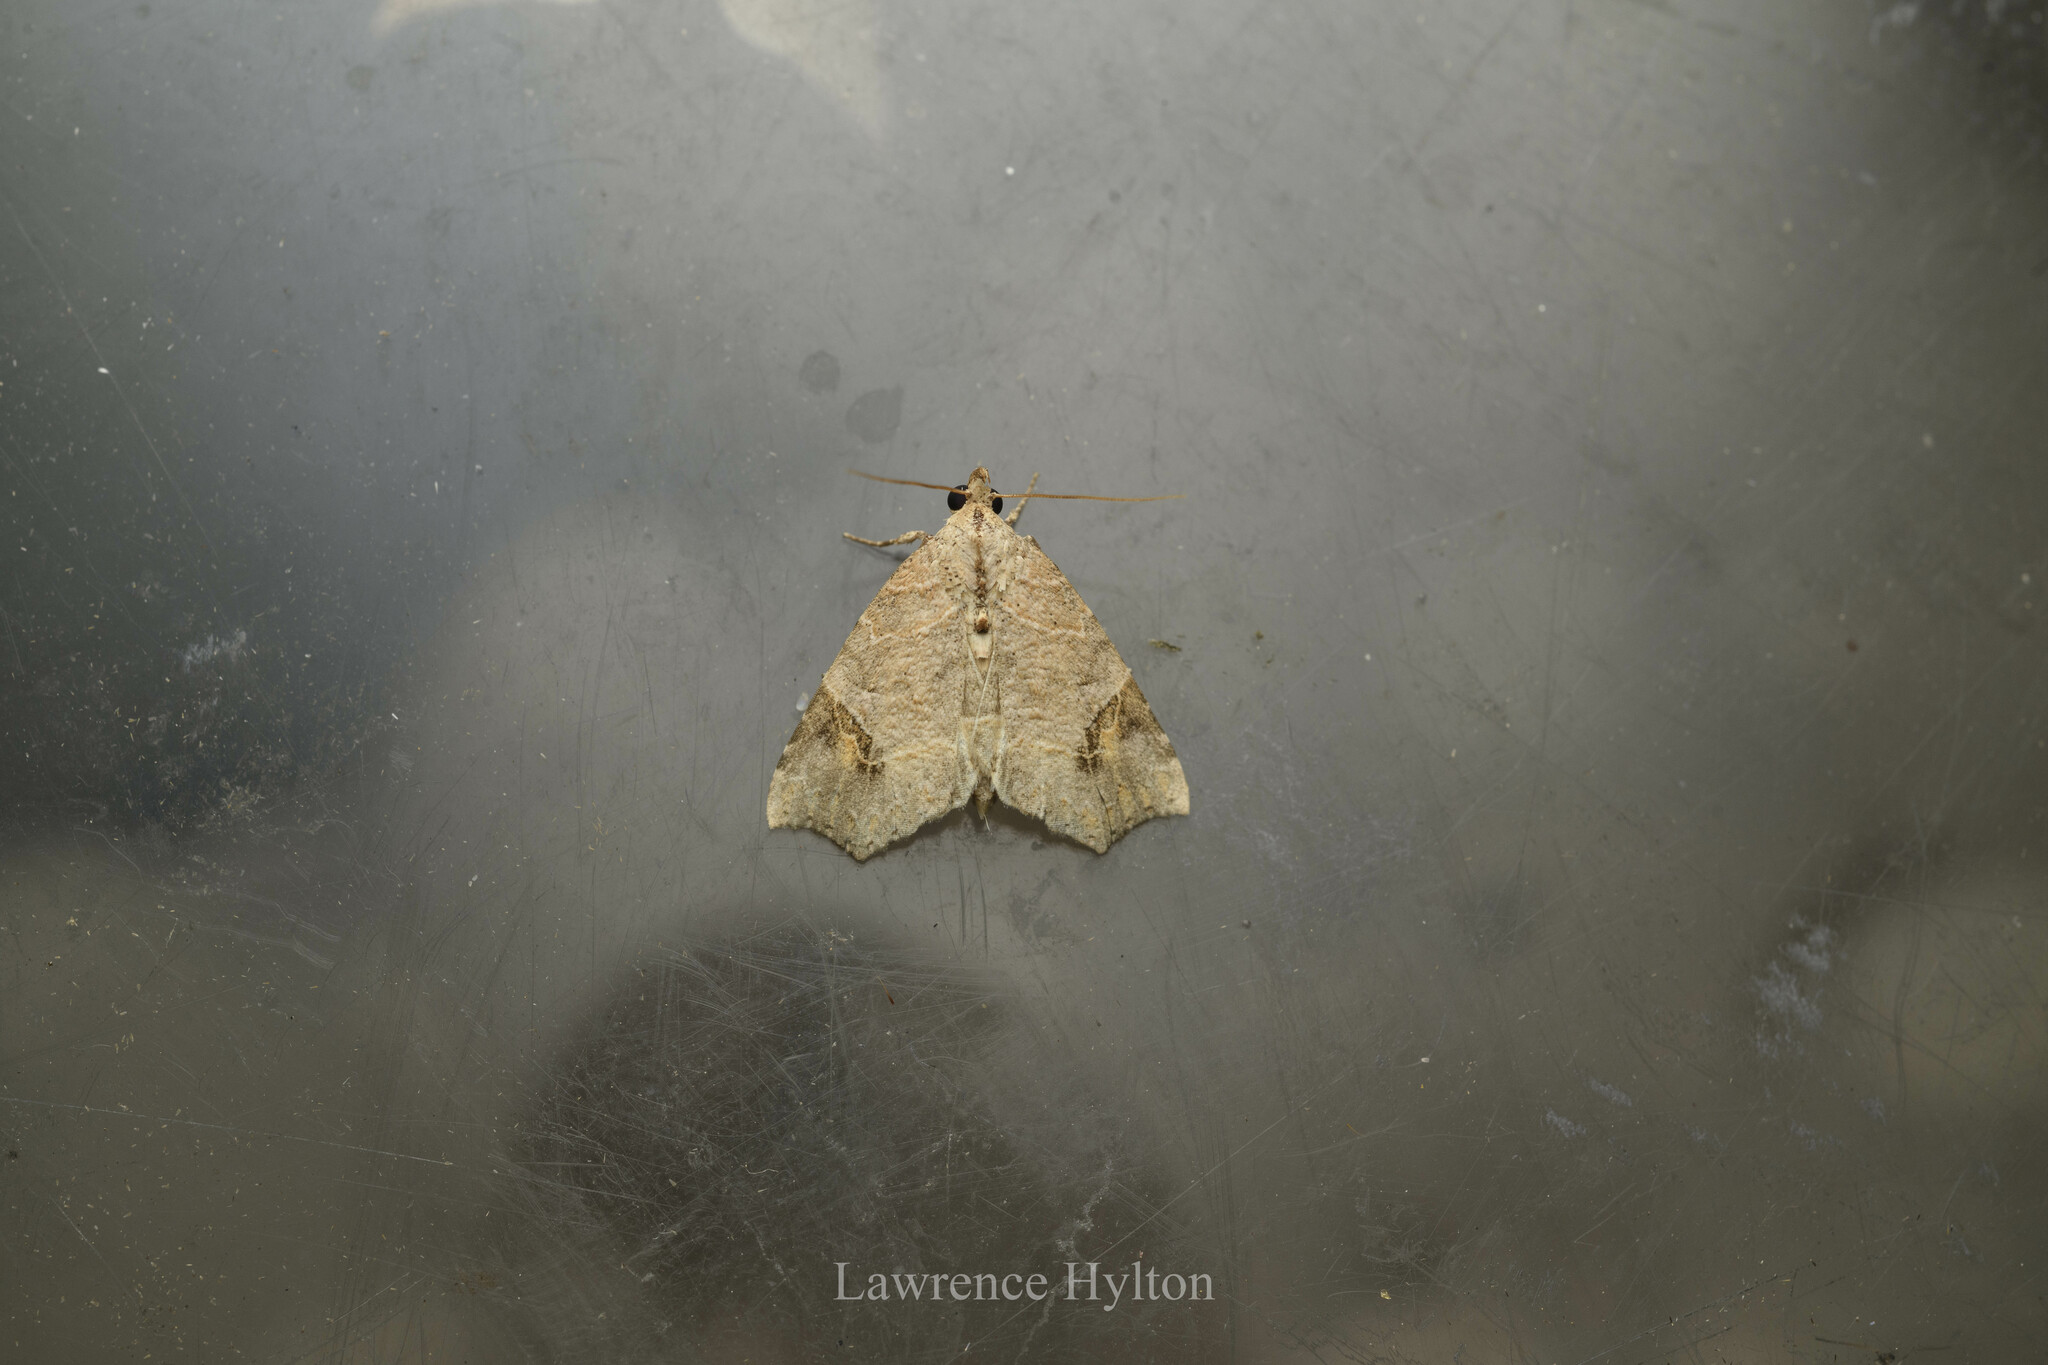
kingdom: Animalia
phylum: Arthropoda
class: Insecta
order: Lepidoptera
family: Erebidae
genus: Tamba
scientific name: Tamba cautiperas
